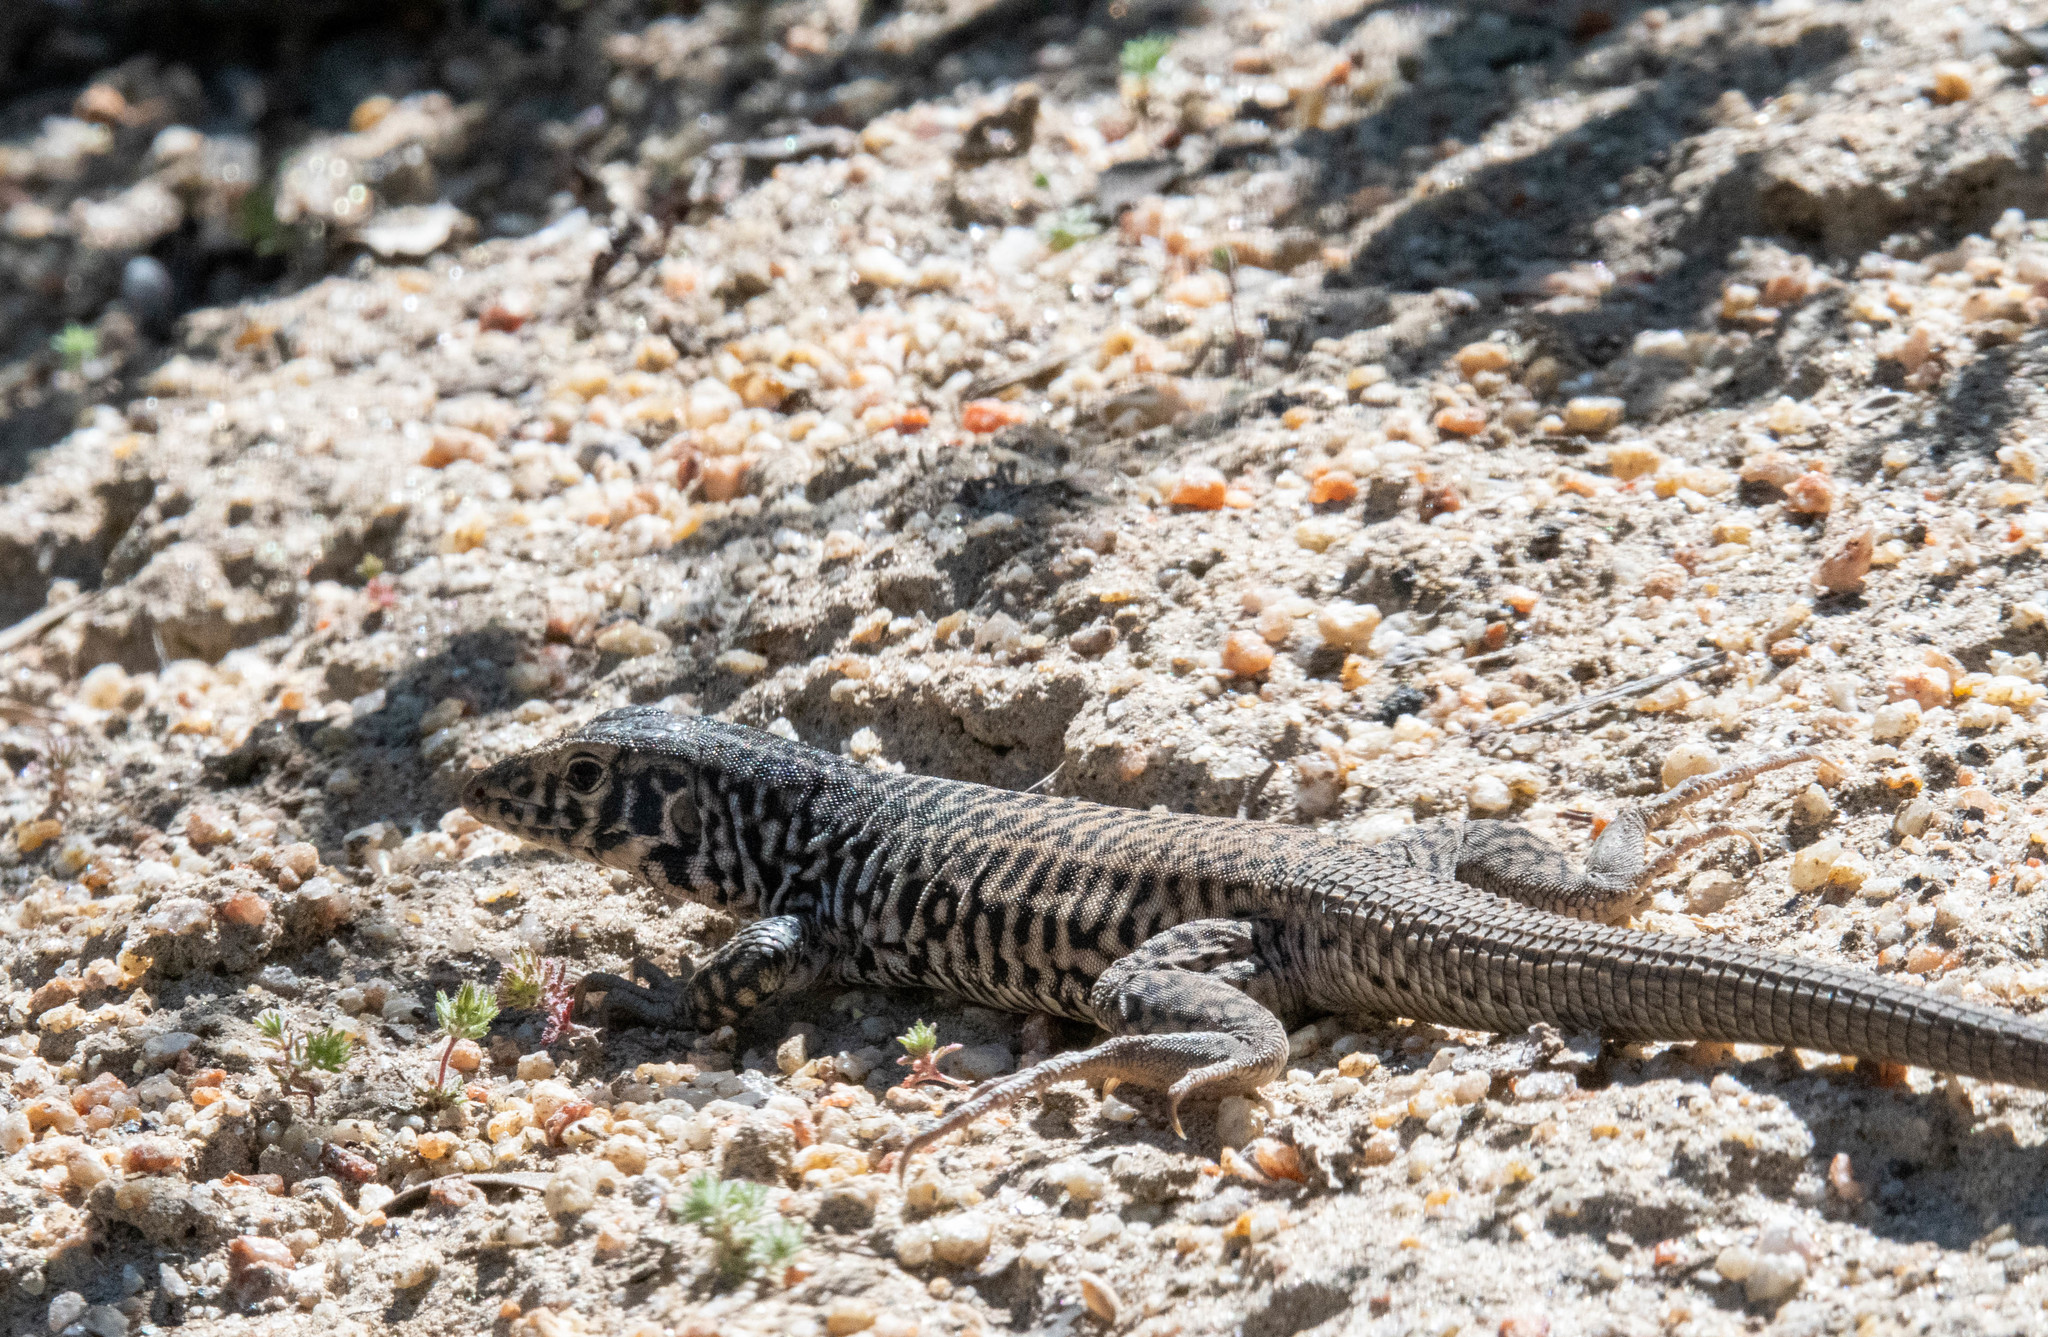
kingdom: Animalia
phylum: Chordata
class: Squamata
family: Teiidae
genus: Aspidoscelis
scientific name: Aspidoscelis tigris
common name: Tiger whiptail
